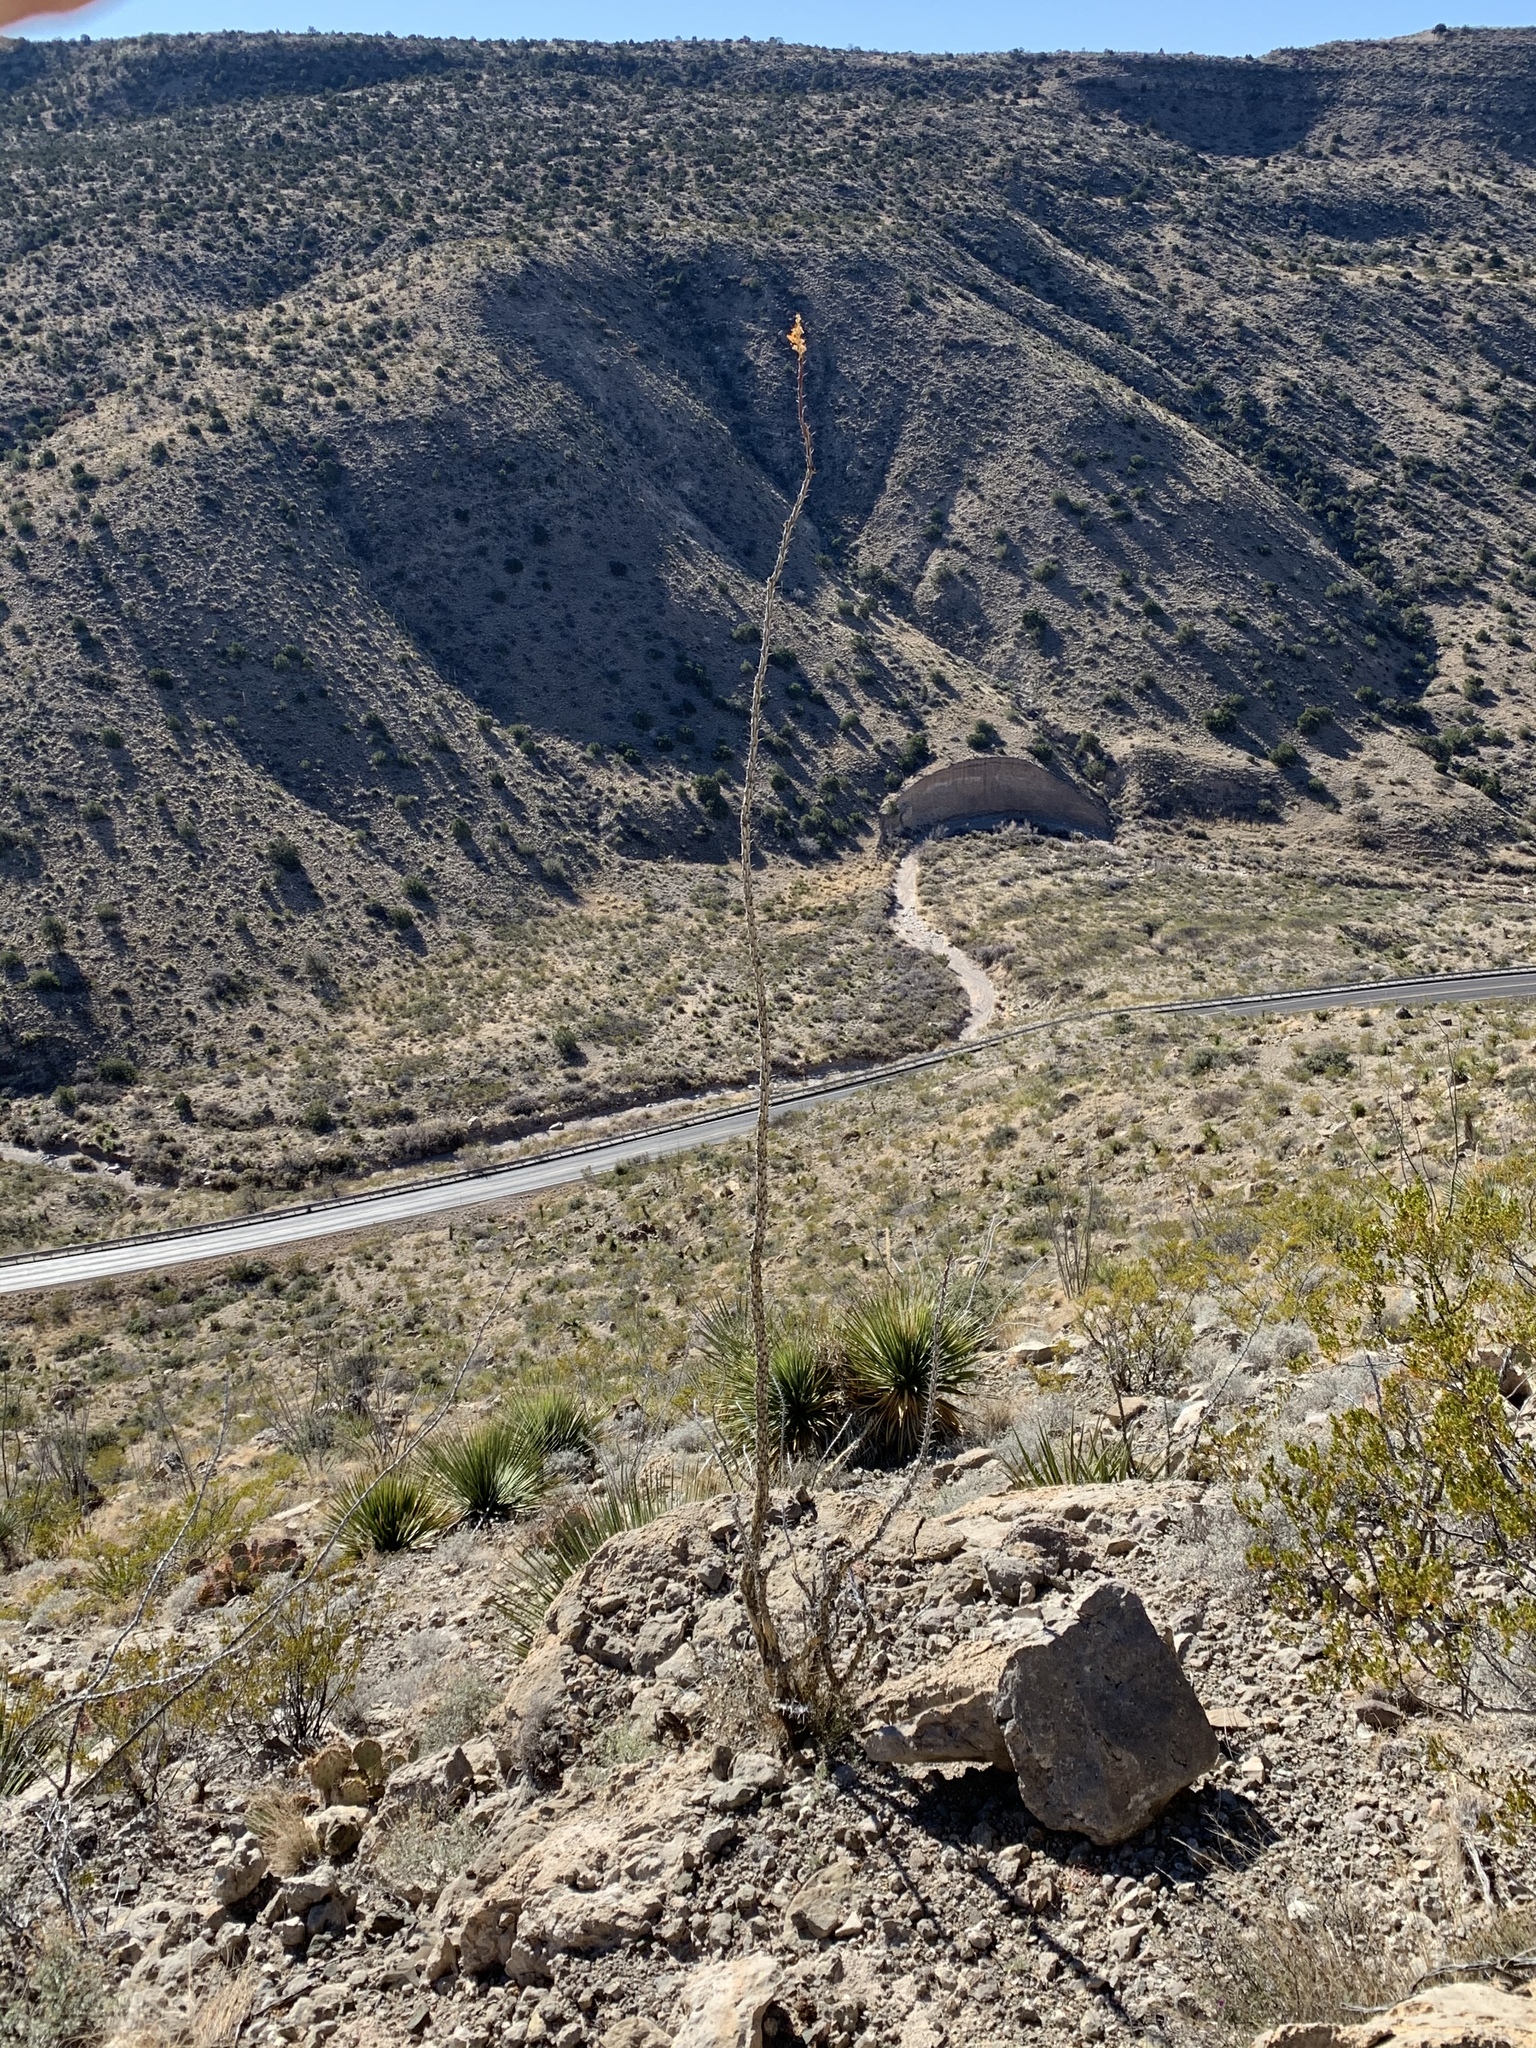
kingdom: Plantae
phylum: Tracheophyta
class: Magnoliopsida
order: Ericales
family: Fouquieriaceae
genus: Fouquieria
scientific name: Fouquieria splendens
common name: Vine-cactus
